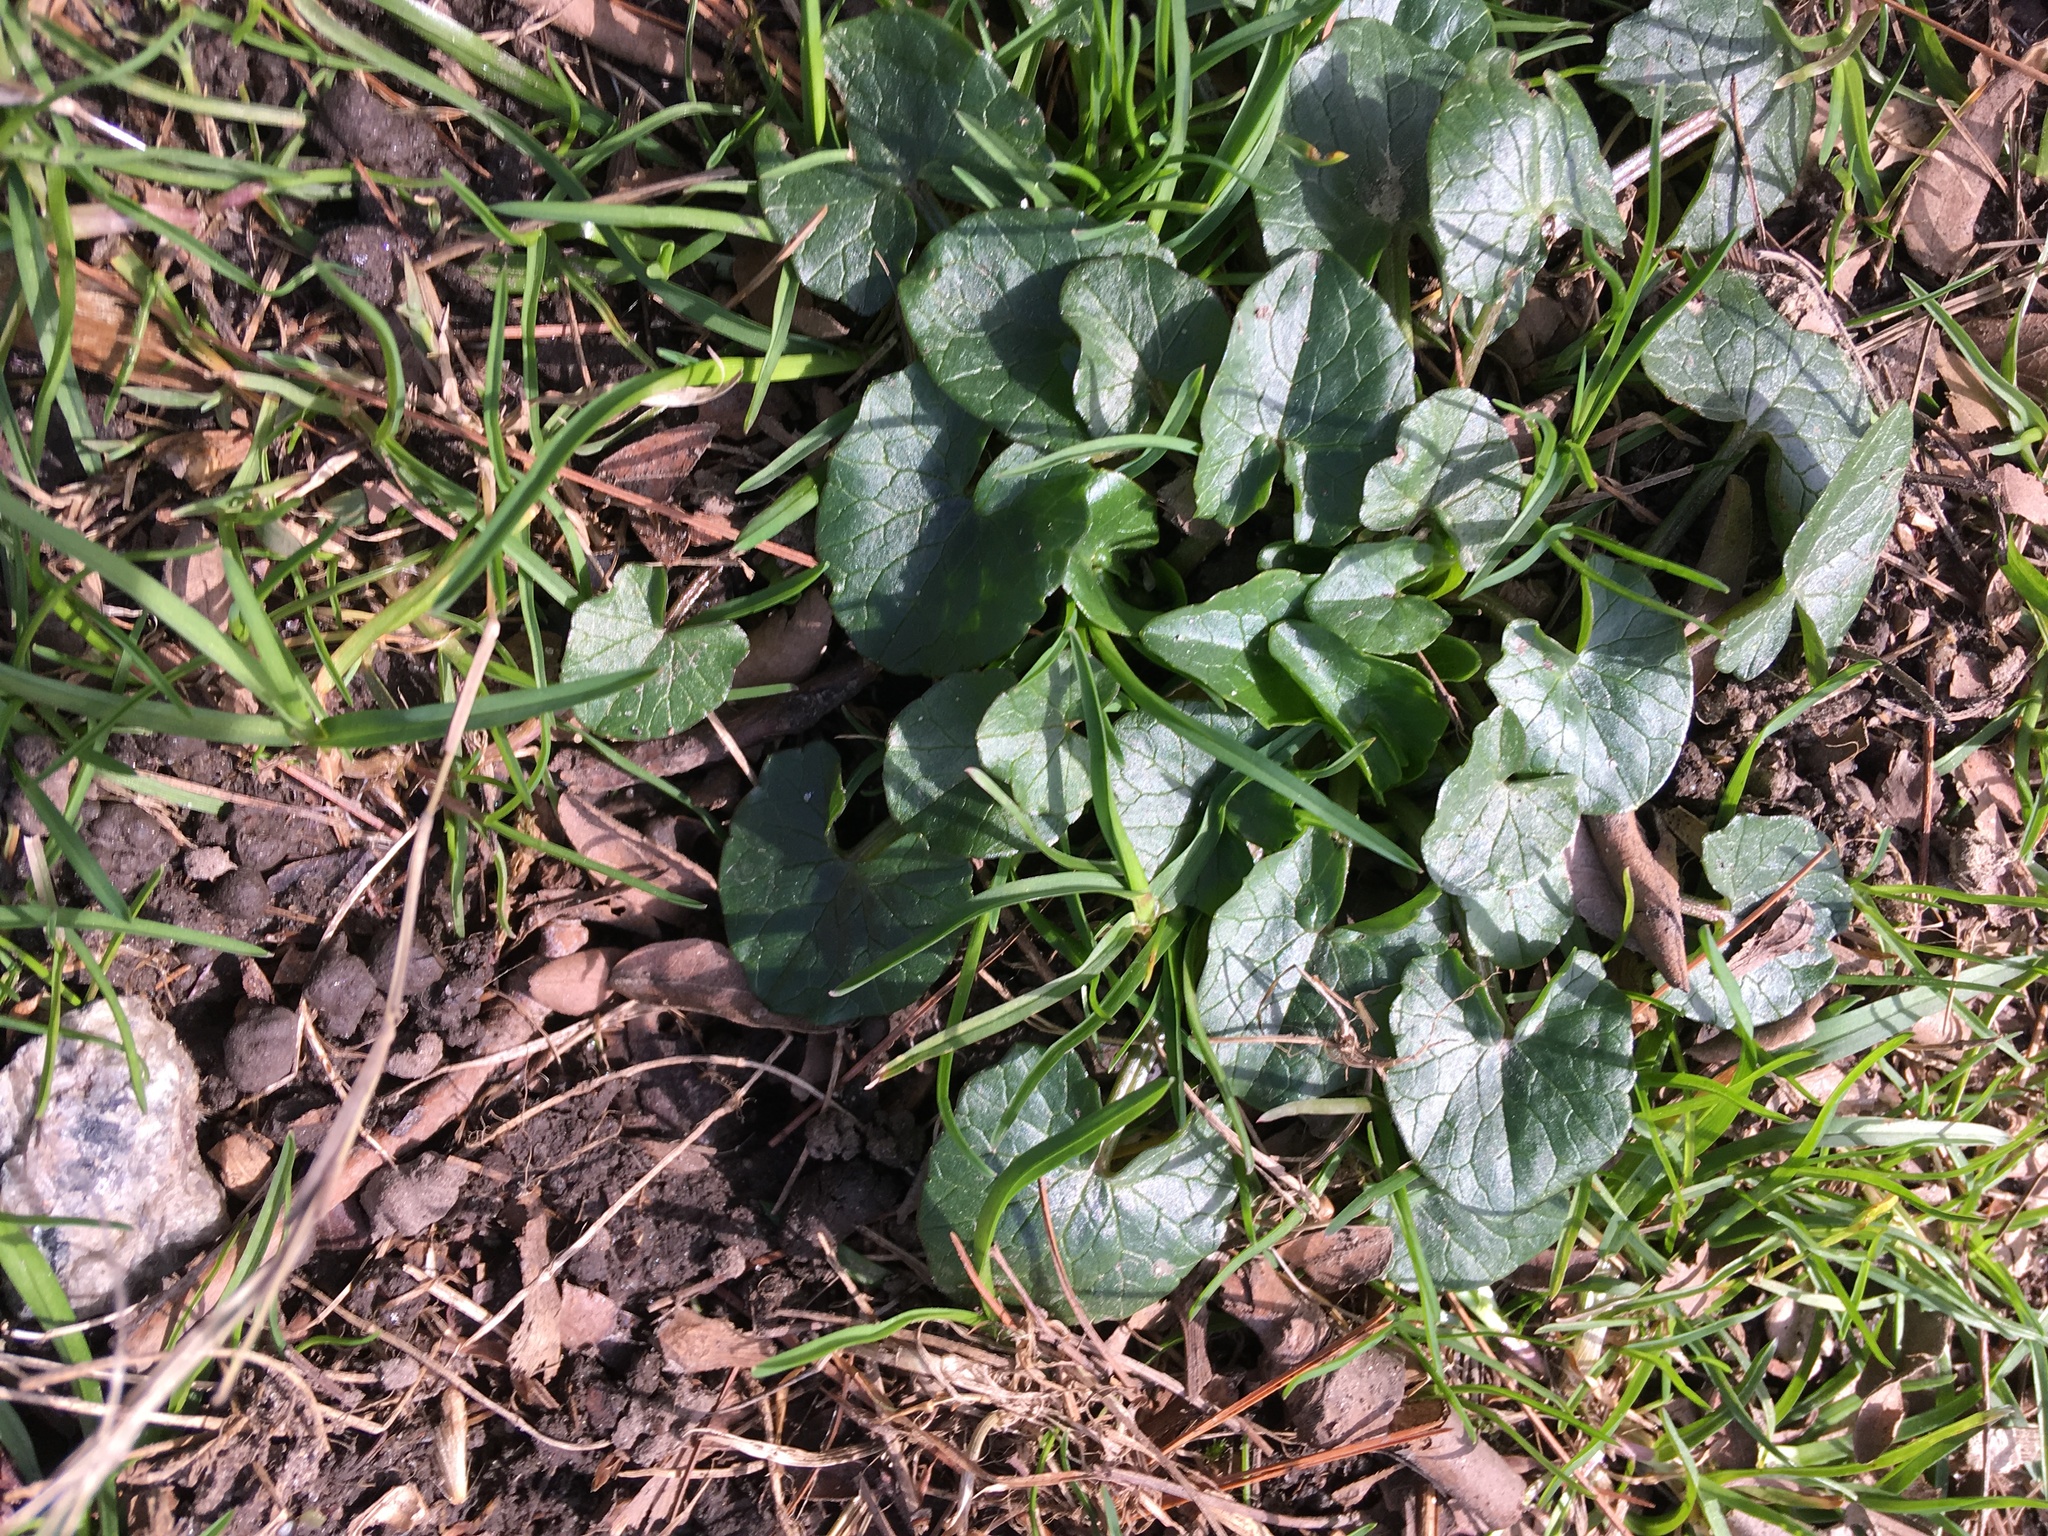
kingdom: Plantae
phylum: Tracheophyta
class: Magnoliopsida
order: Ranunculales
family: Ranunculaceae
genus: Ficaria
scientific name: Ficaria verna
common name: Lesser celandine
